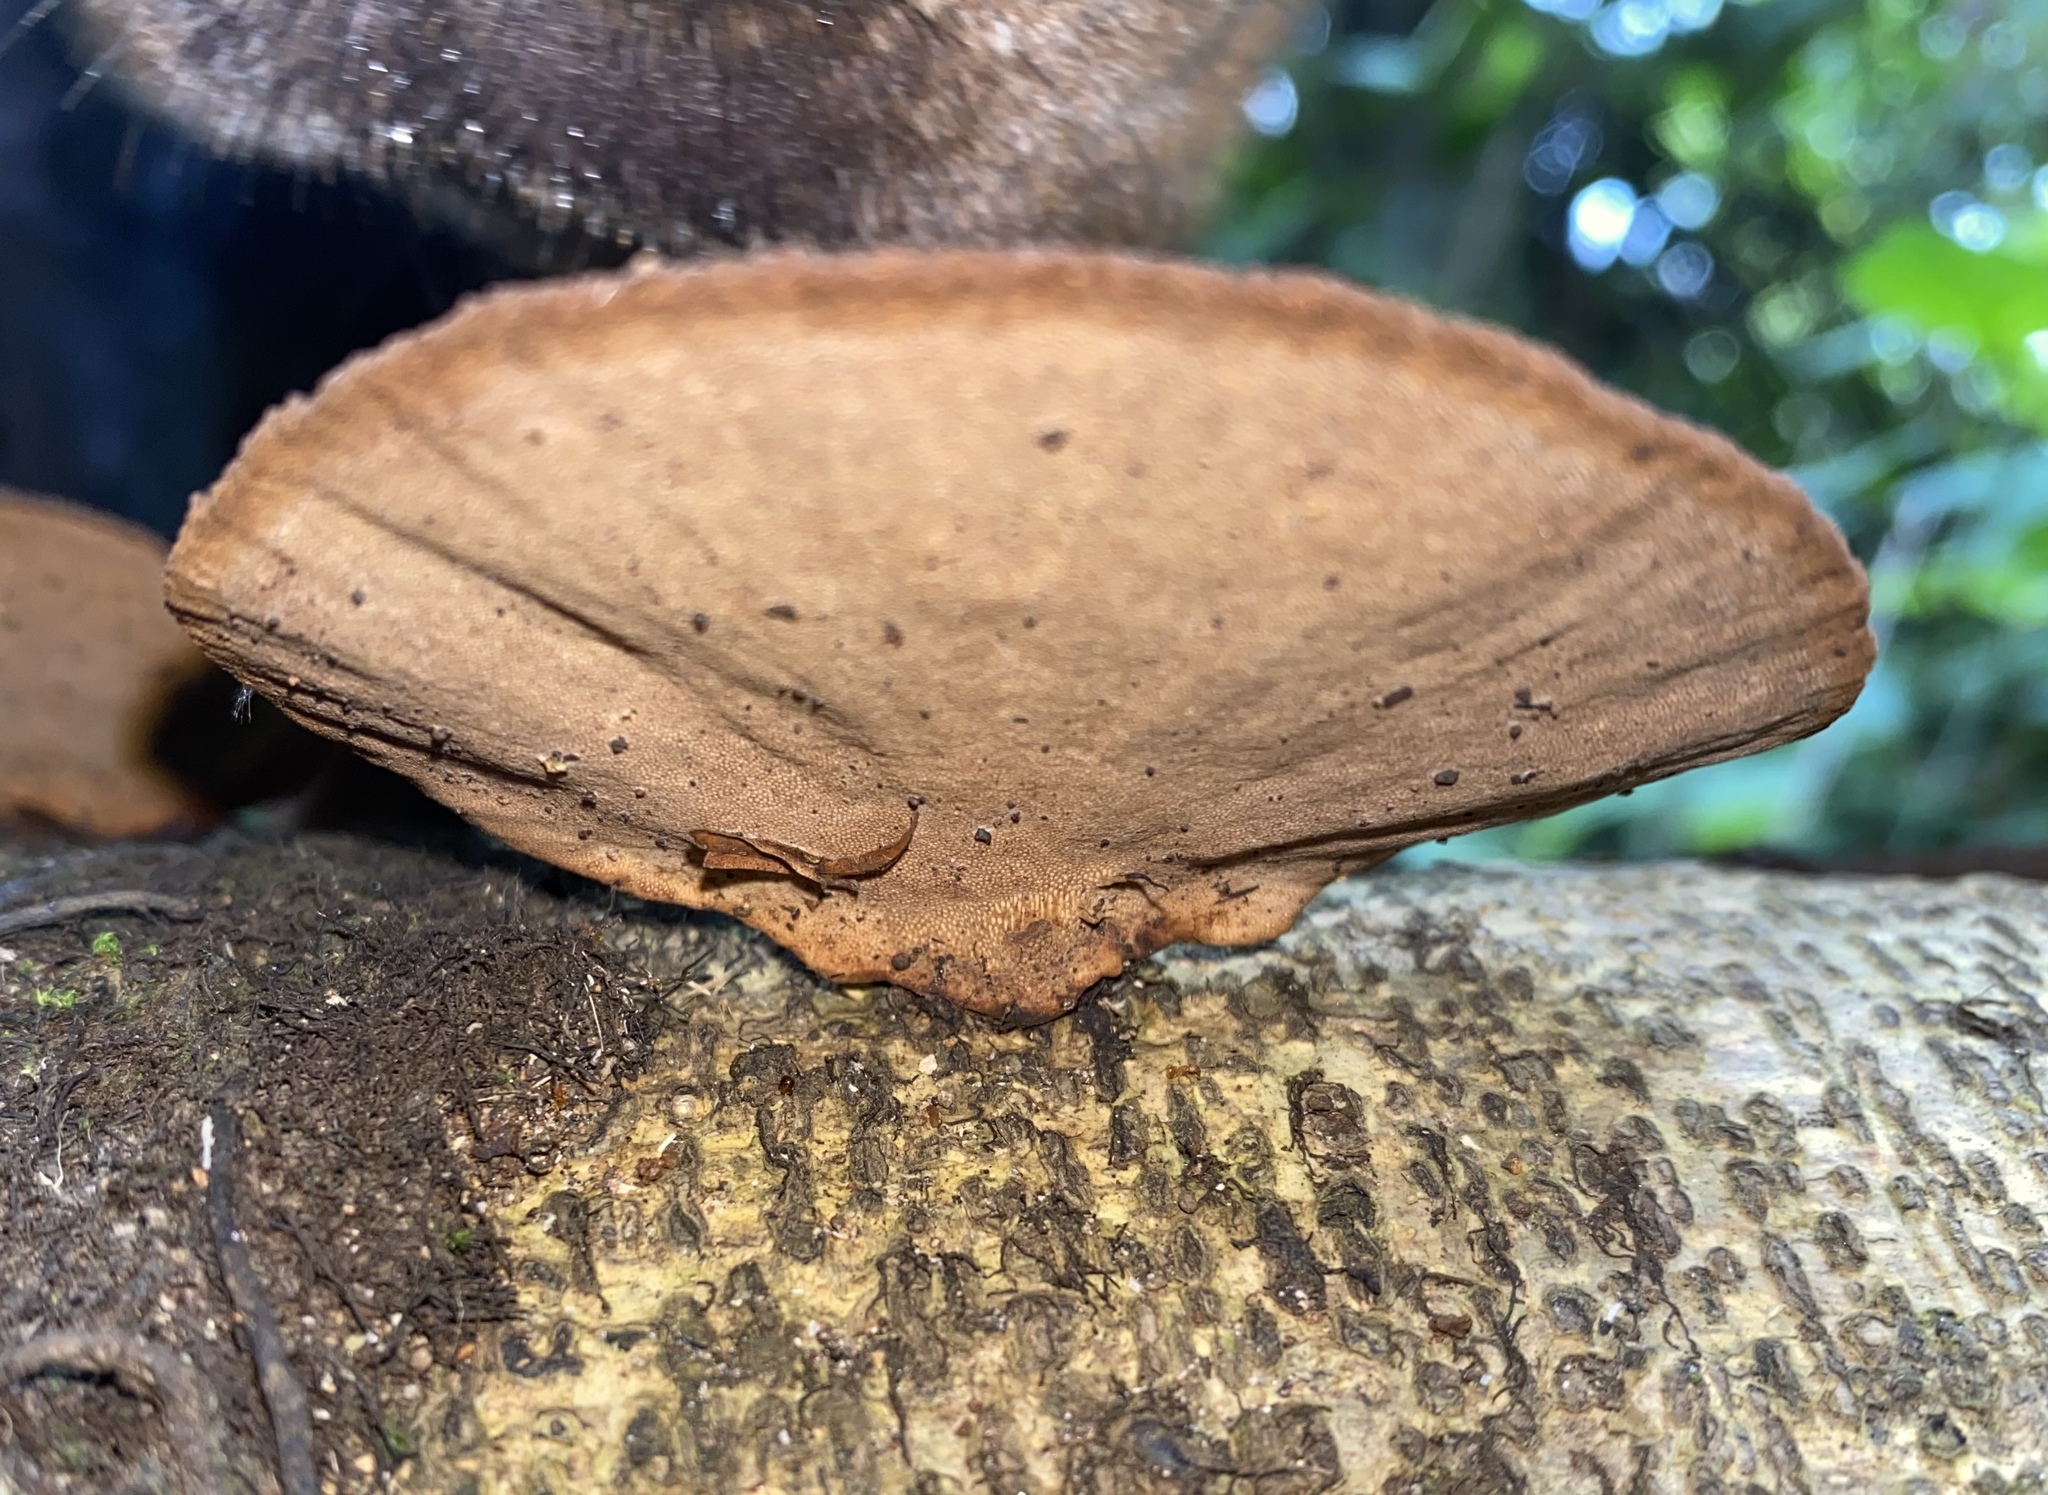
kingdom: Fungi
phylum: Basidiomycota
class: Agaricomycetes
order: Polyporales
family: Cerrenaceae
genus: Cerrena
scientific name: Cerrena hydnoides
